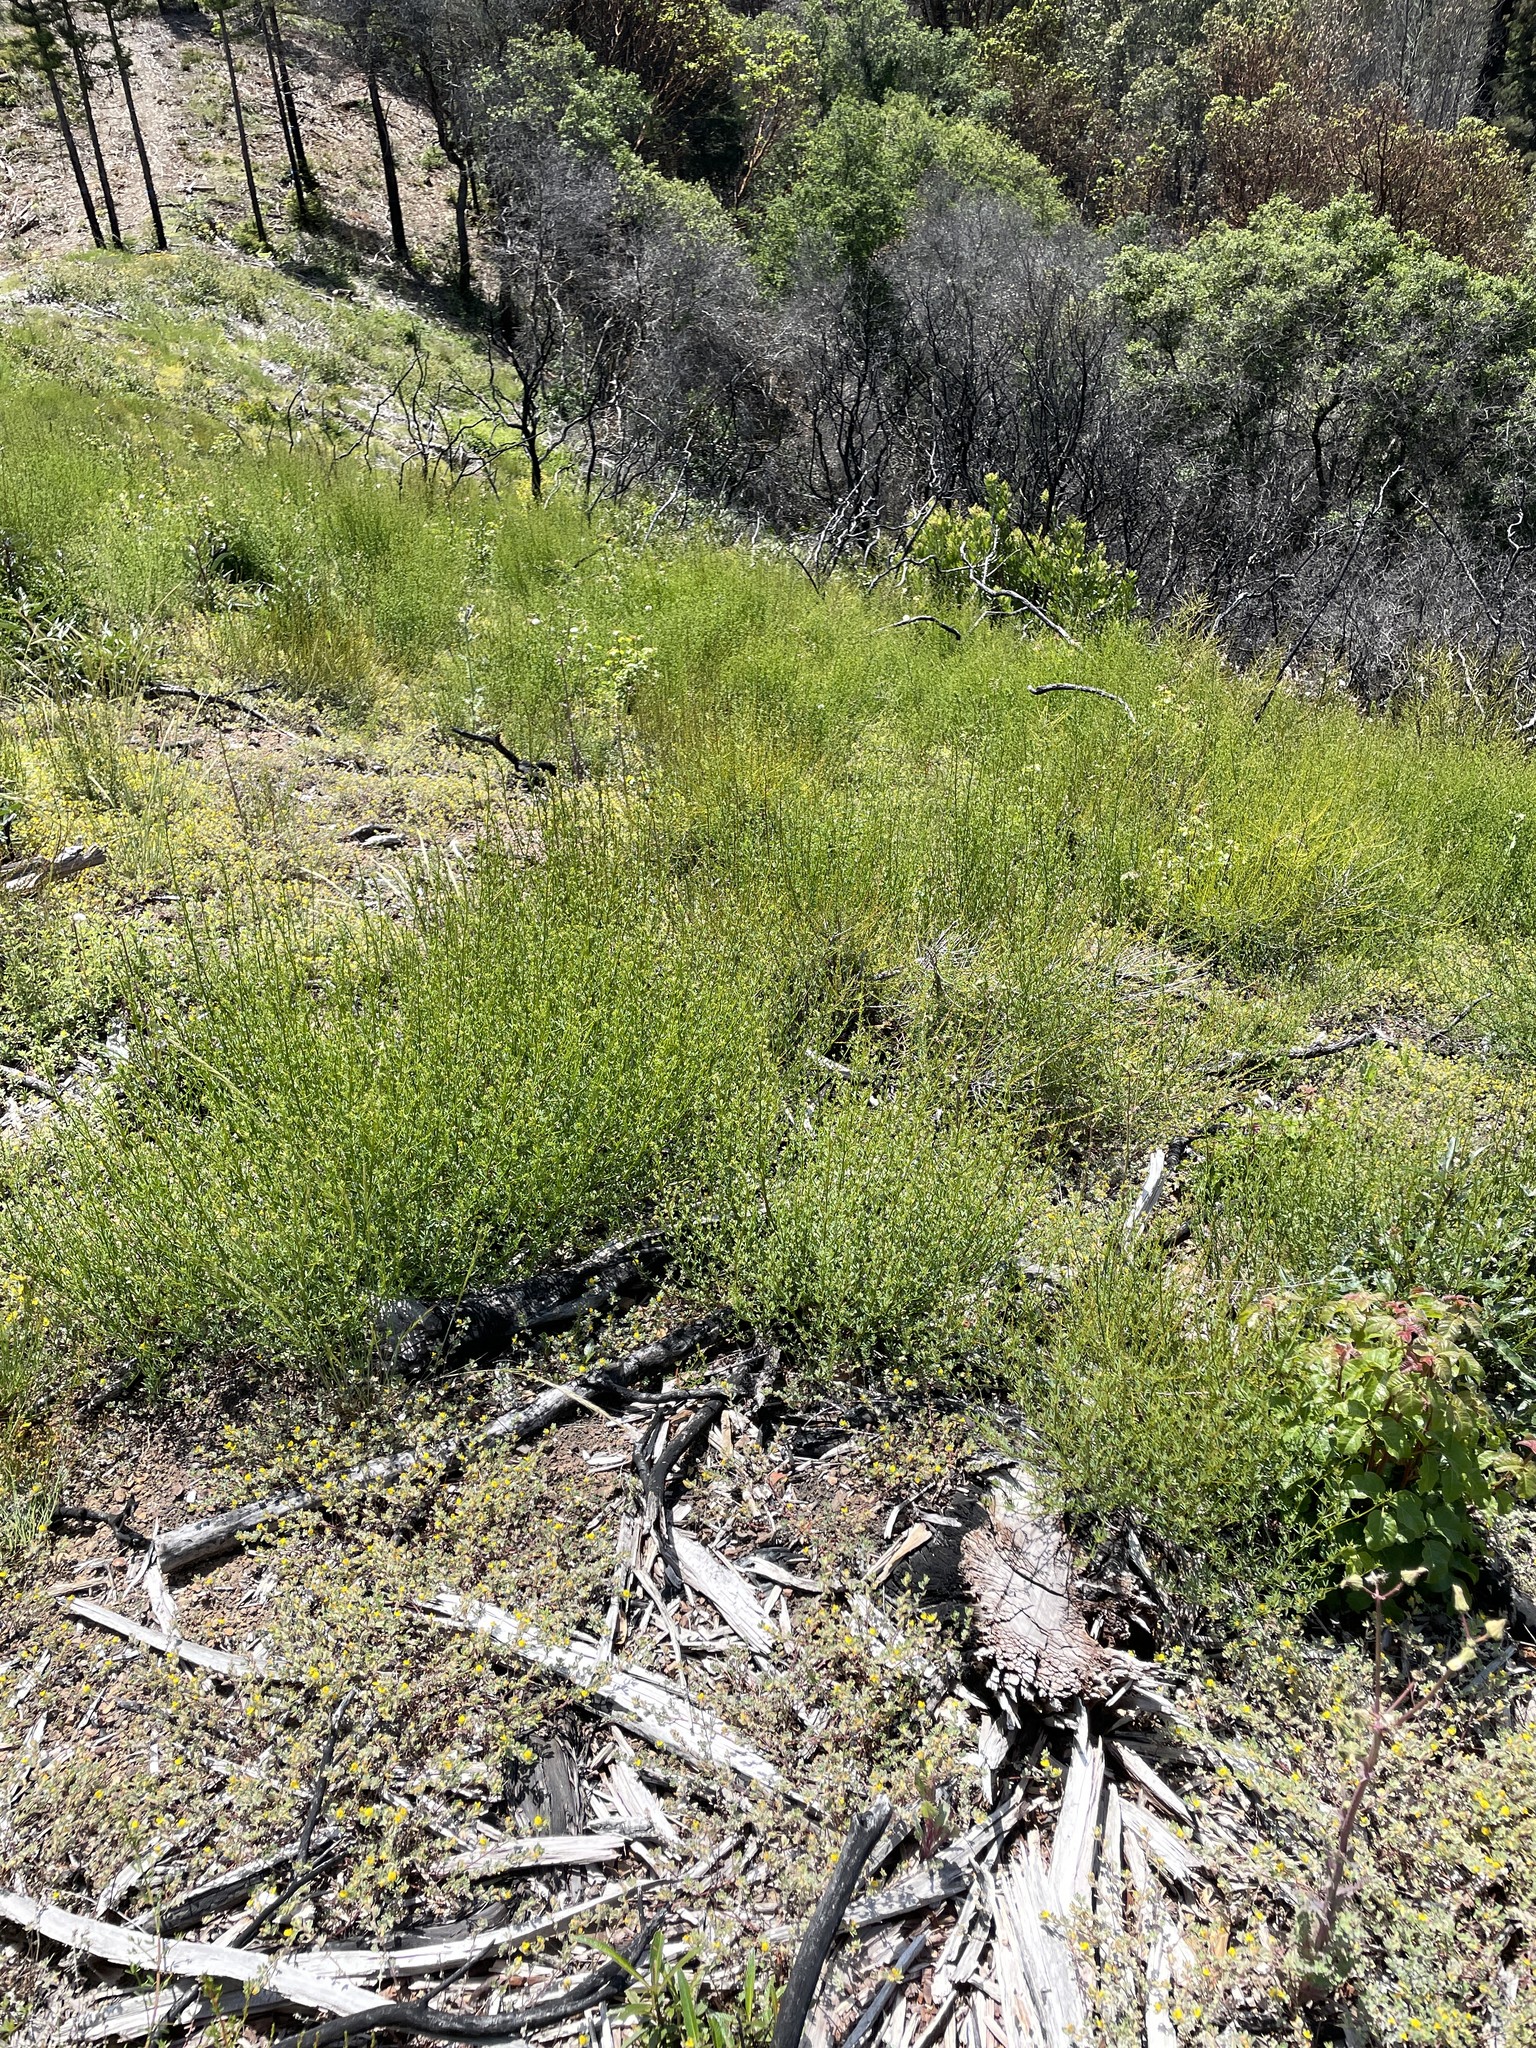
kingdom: Plantae
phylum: Tracheophyta
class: Magnoliopsida
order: Fabales
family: Fabaceae
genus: Acmispon
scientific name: Acmispon glaber
